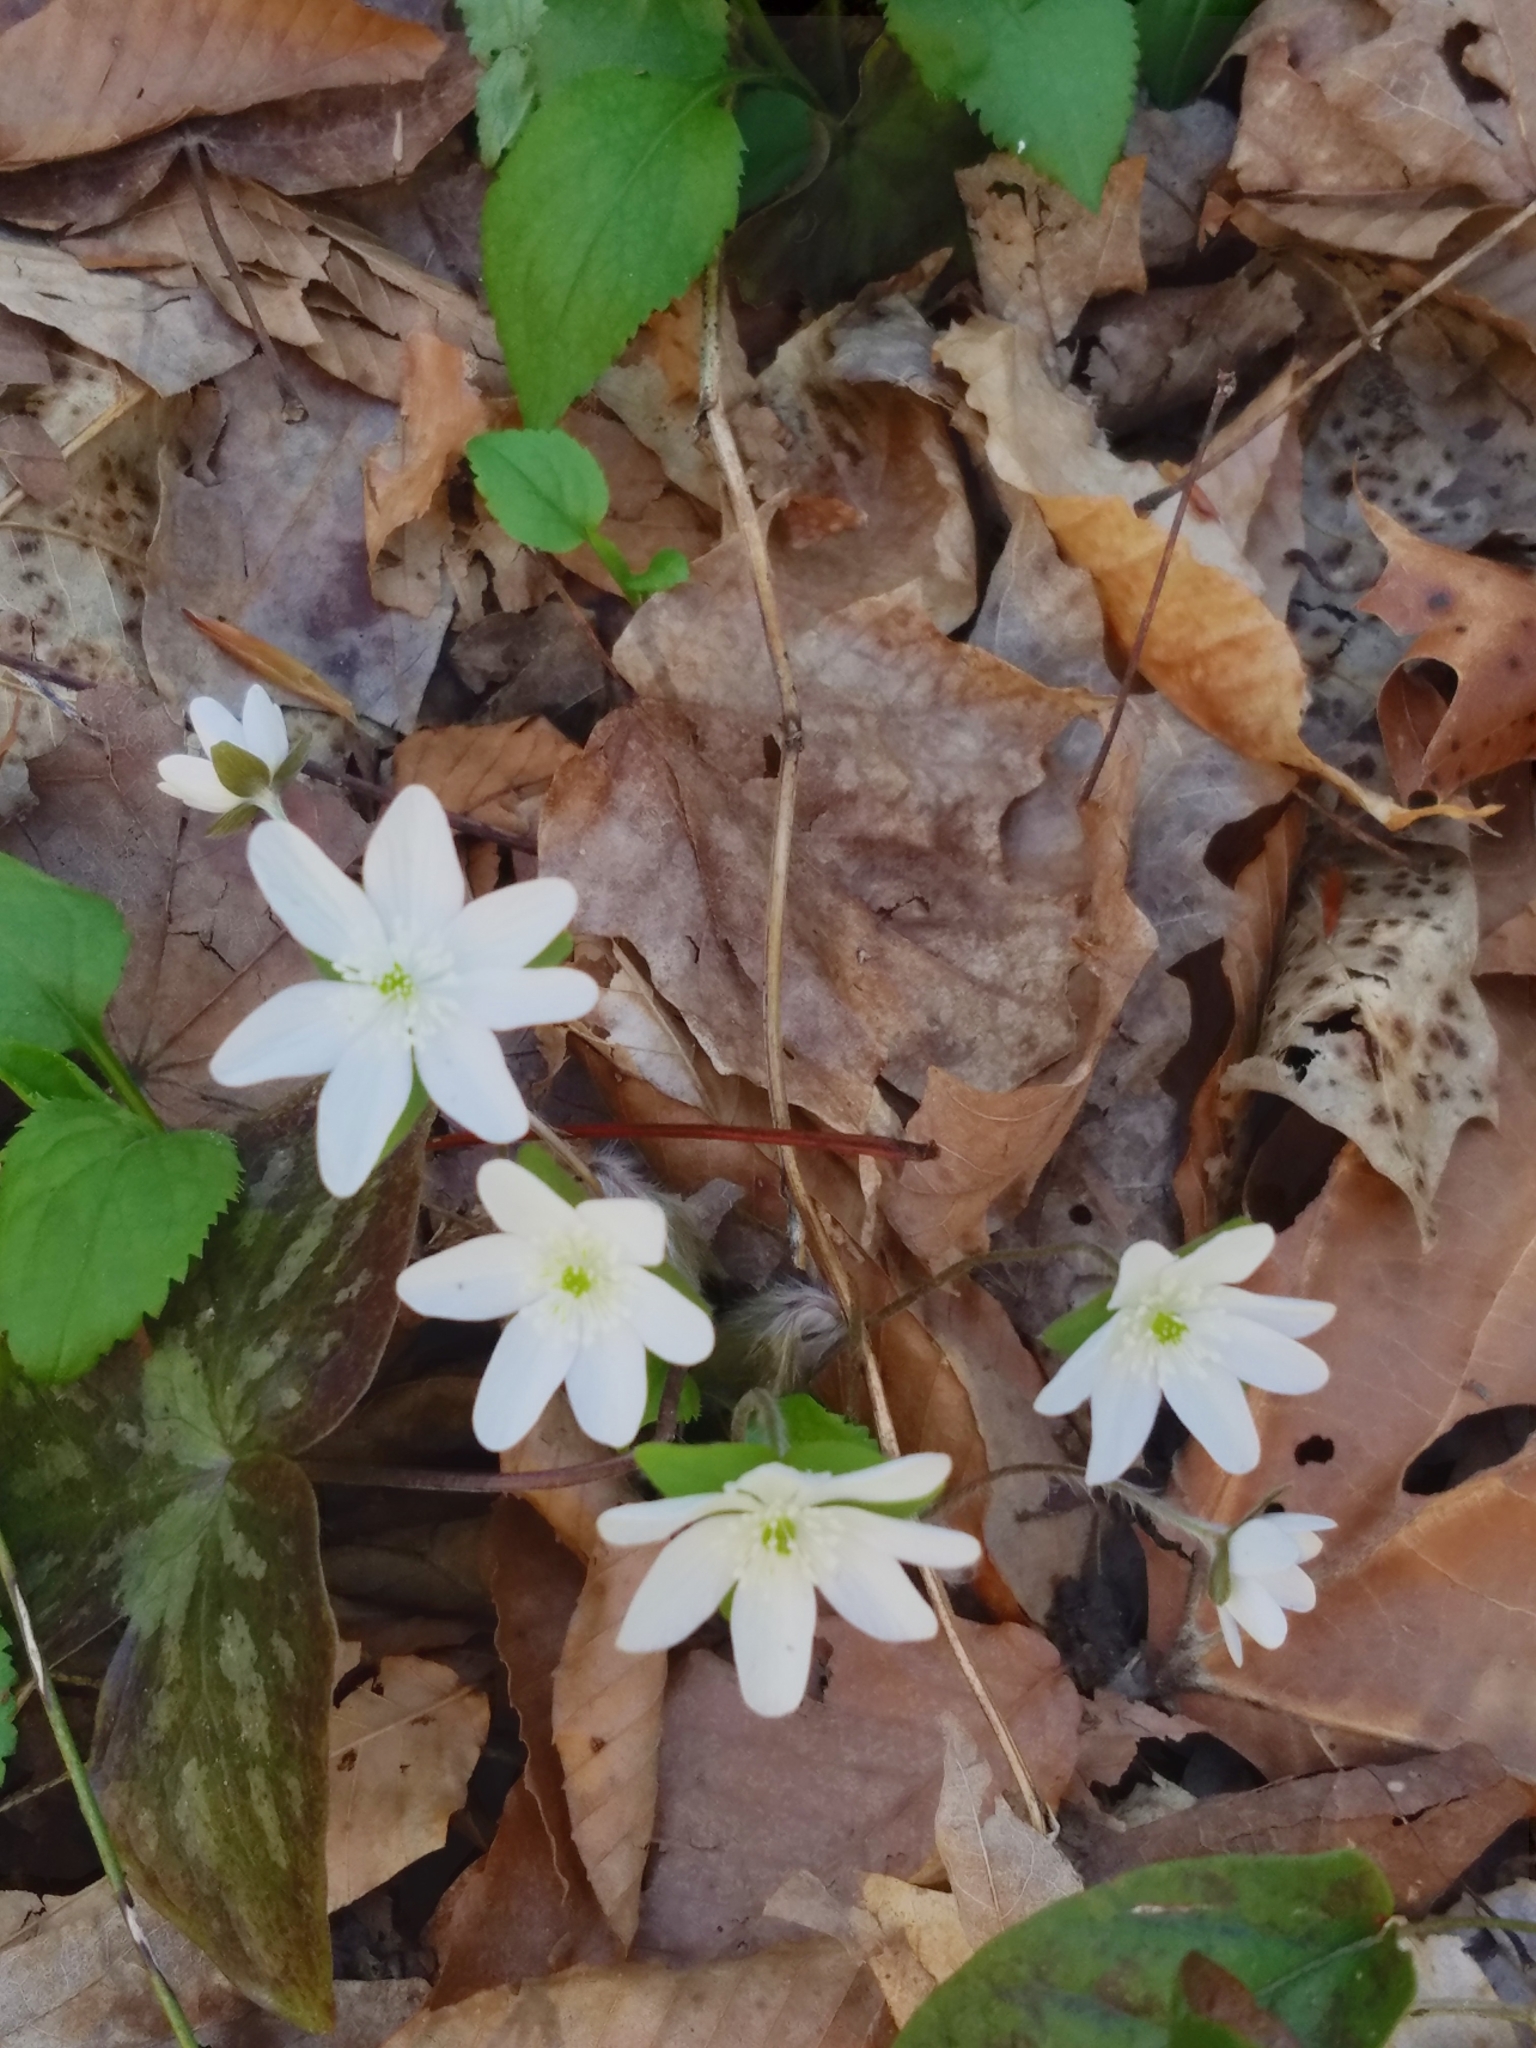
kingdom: Plantae
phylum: Tracheophyta
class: Magnoliopsida
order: Ranunculales
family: Ranunculaceae
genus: Hepatica
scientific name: Hepatica acutiloba
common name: Sharp-lobed hepatica
